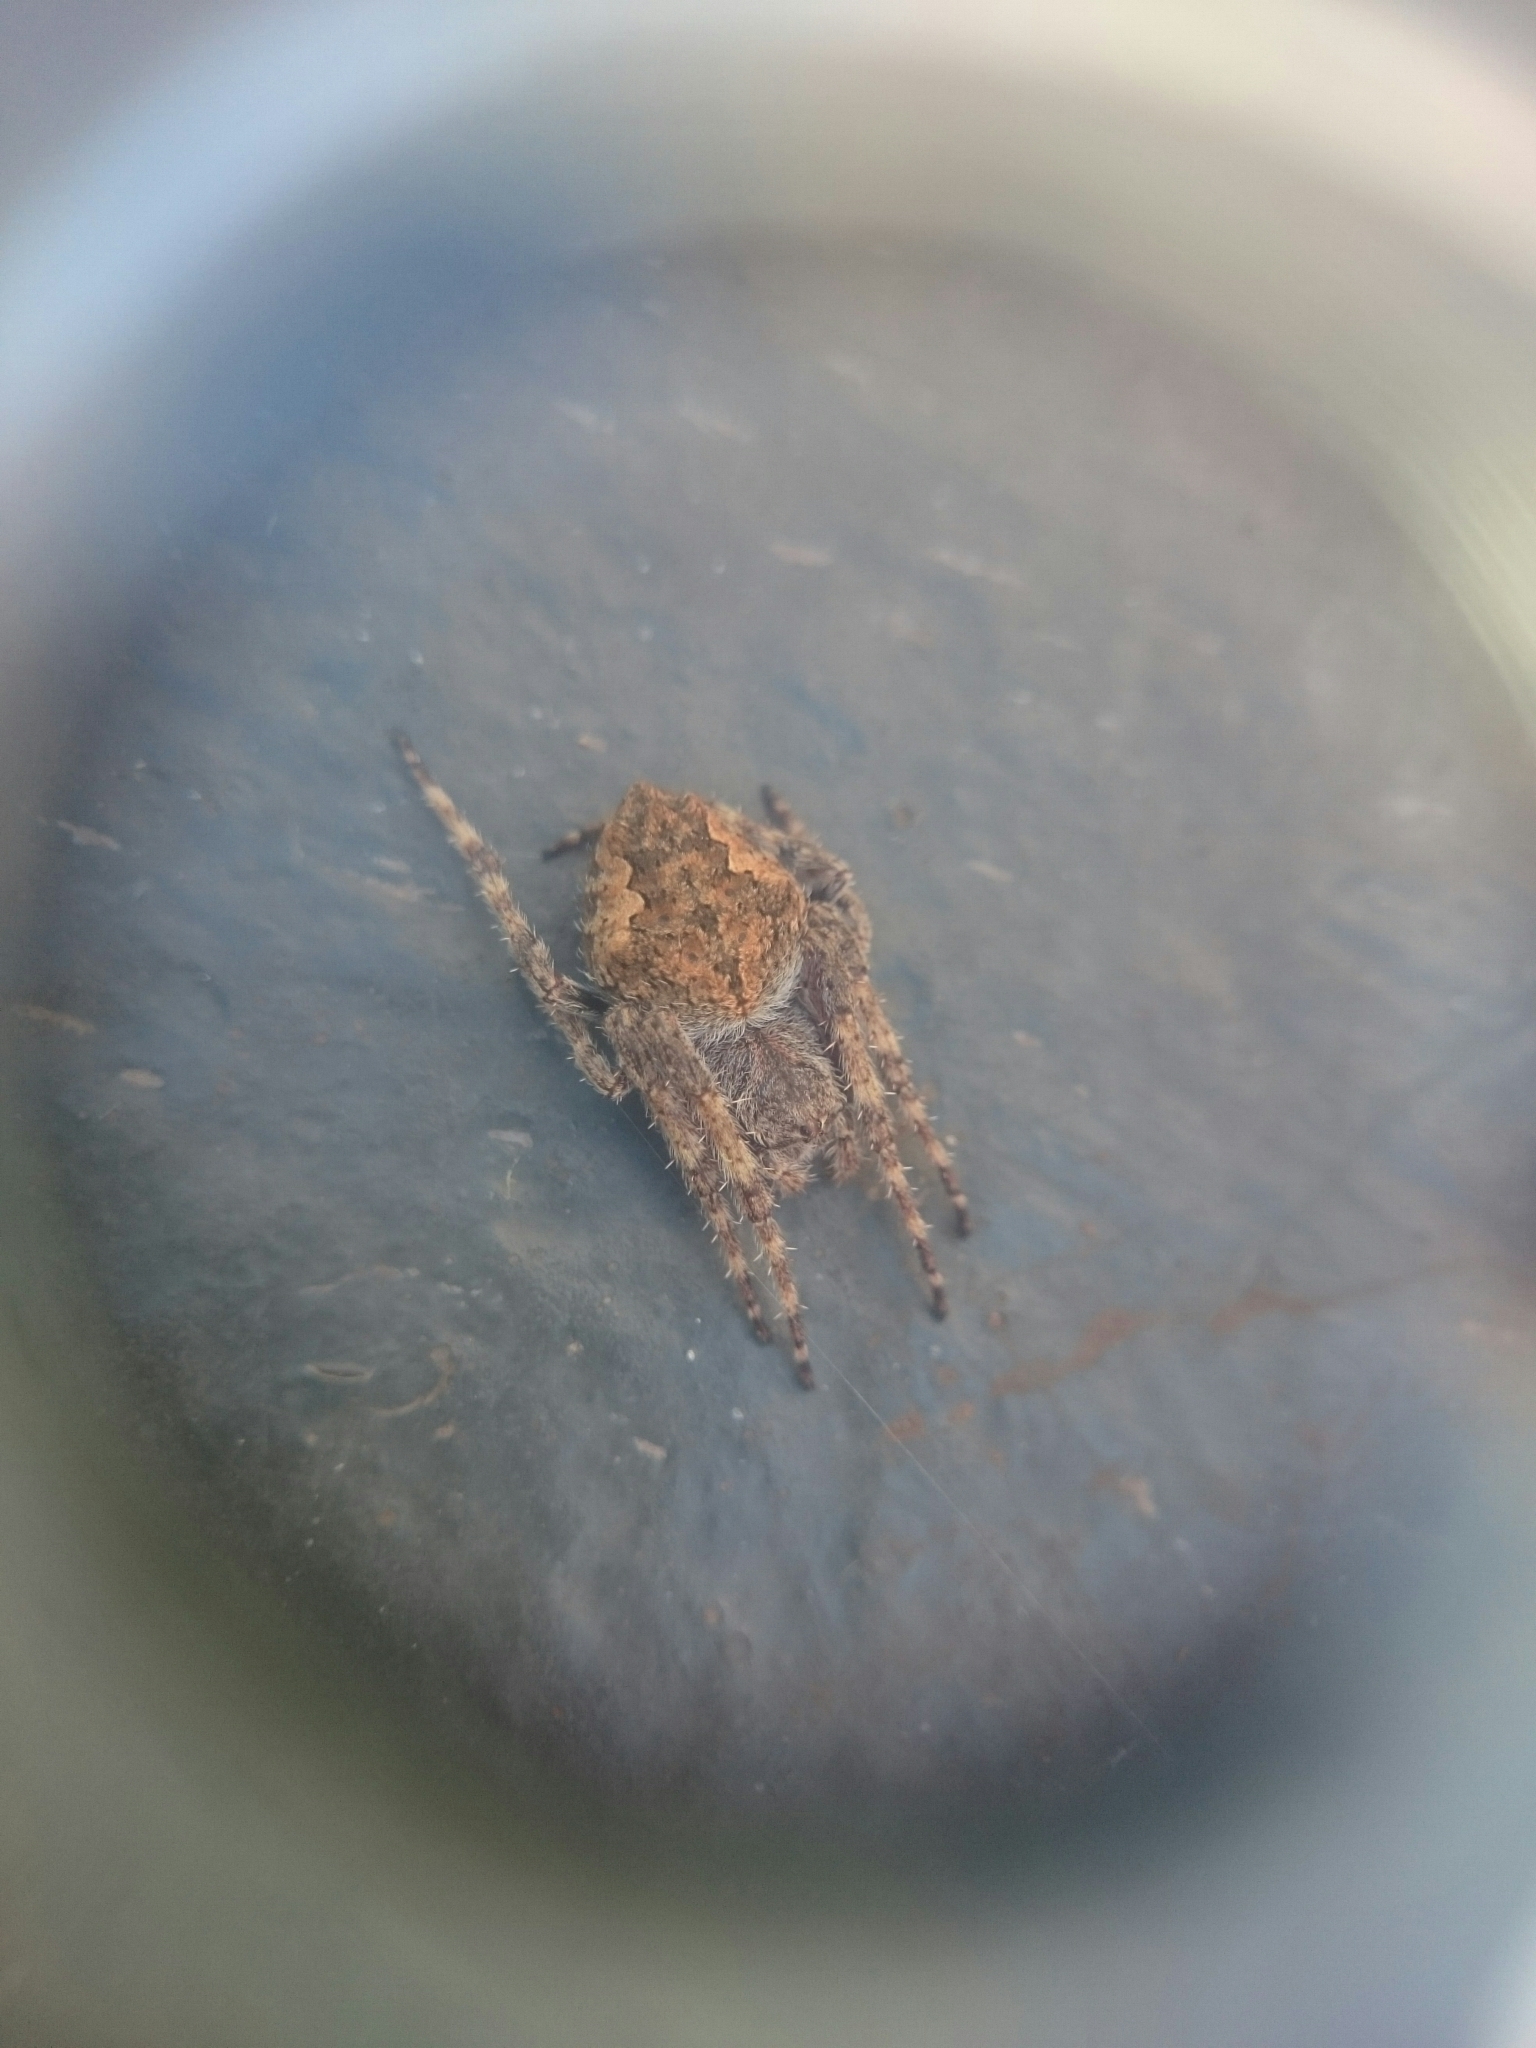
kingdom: Animalia
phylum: Arthropoda
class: Arachnida
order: Araneae
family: Araneidae
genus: Eriophora
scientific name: Eriophora pustulosa
